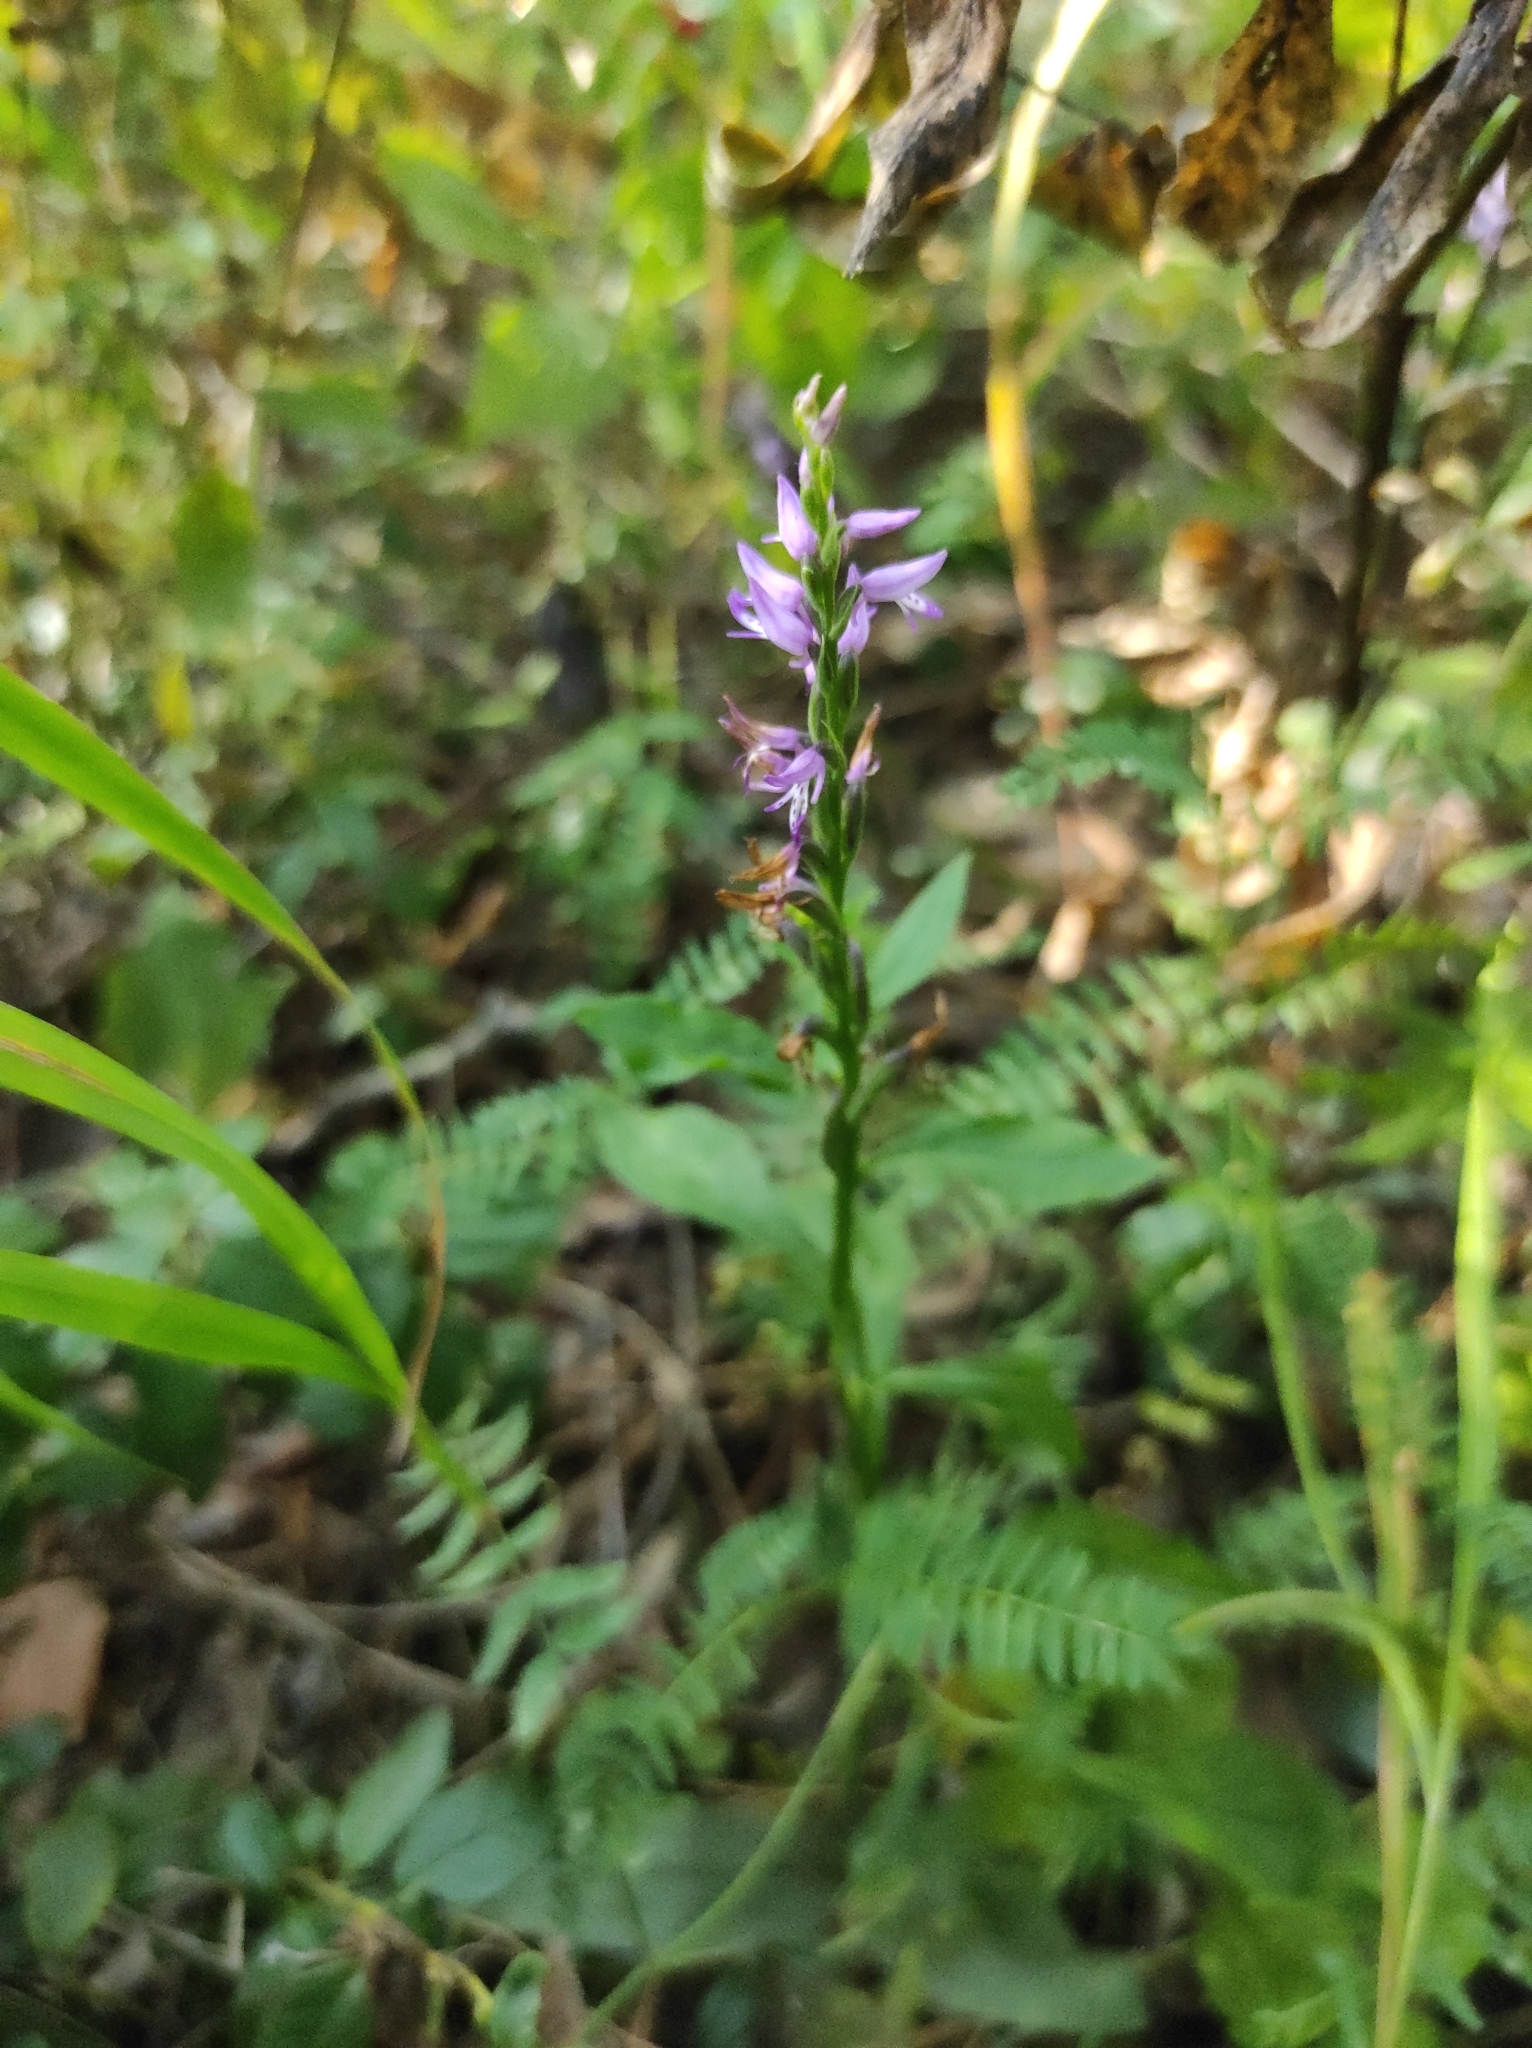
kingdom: Plantae
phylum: Tracheophyta
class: Liliopsida
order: Asparagales
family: Orchidaceae
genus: Hemipilia
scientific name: Hemipilia cucullata
